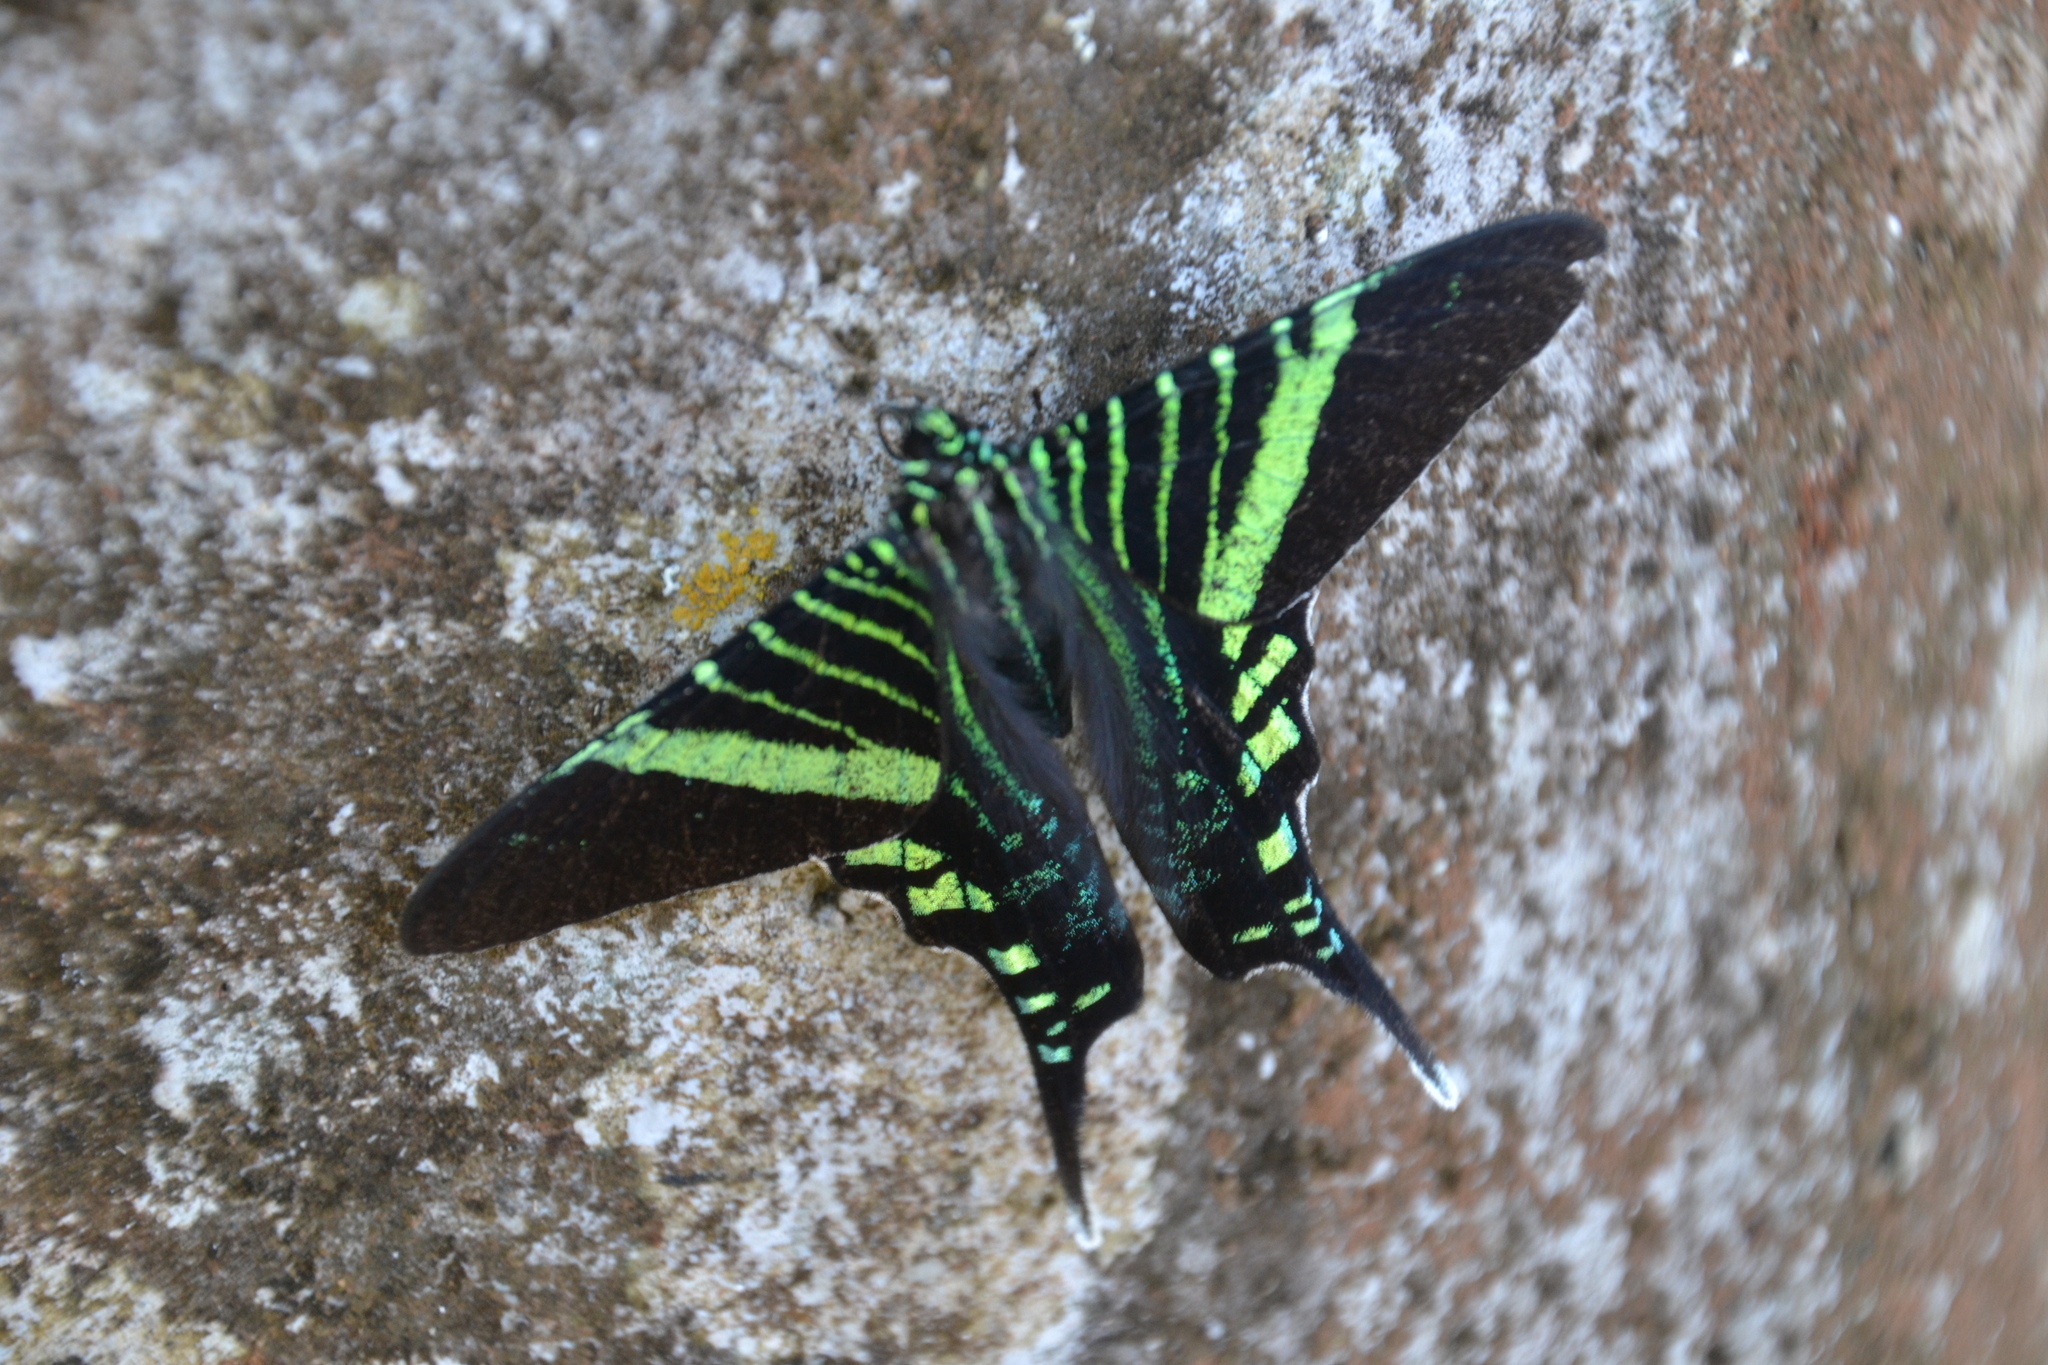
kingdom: Animalia
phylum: Arthropoda
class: Insecta
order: Lepidoptera
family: Uraniidae
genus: Urania
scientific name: Urania fulgens
